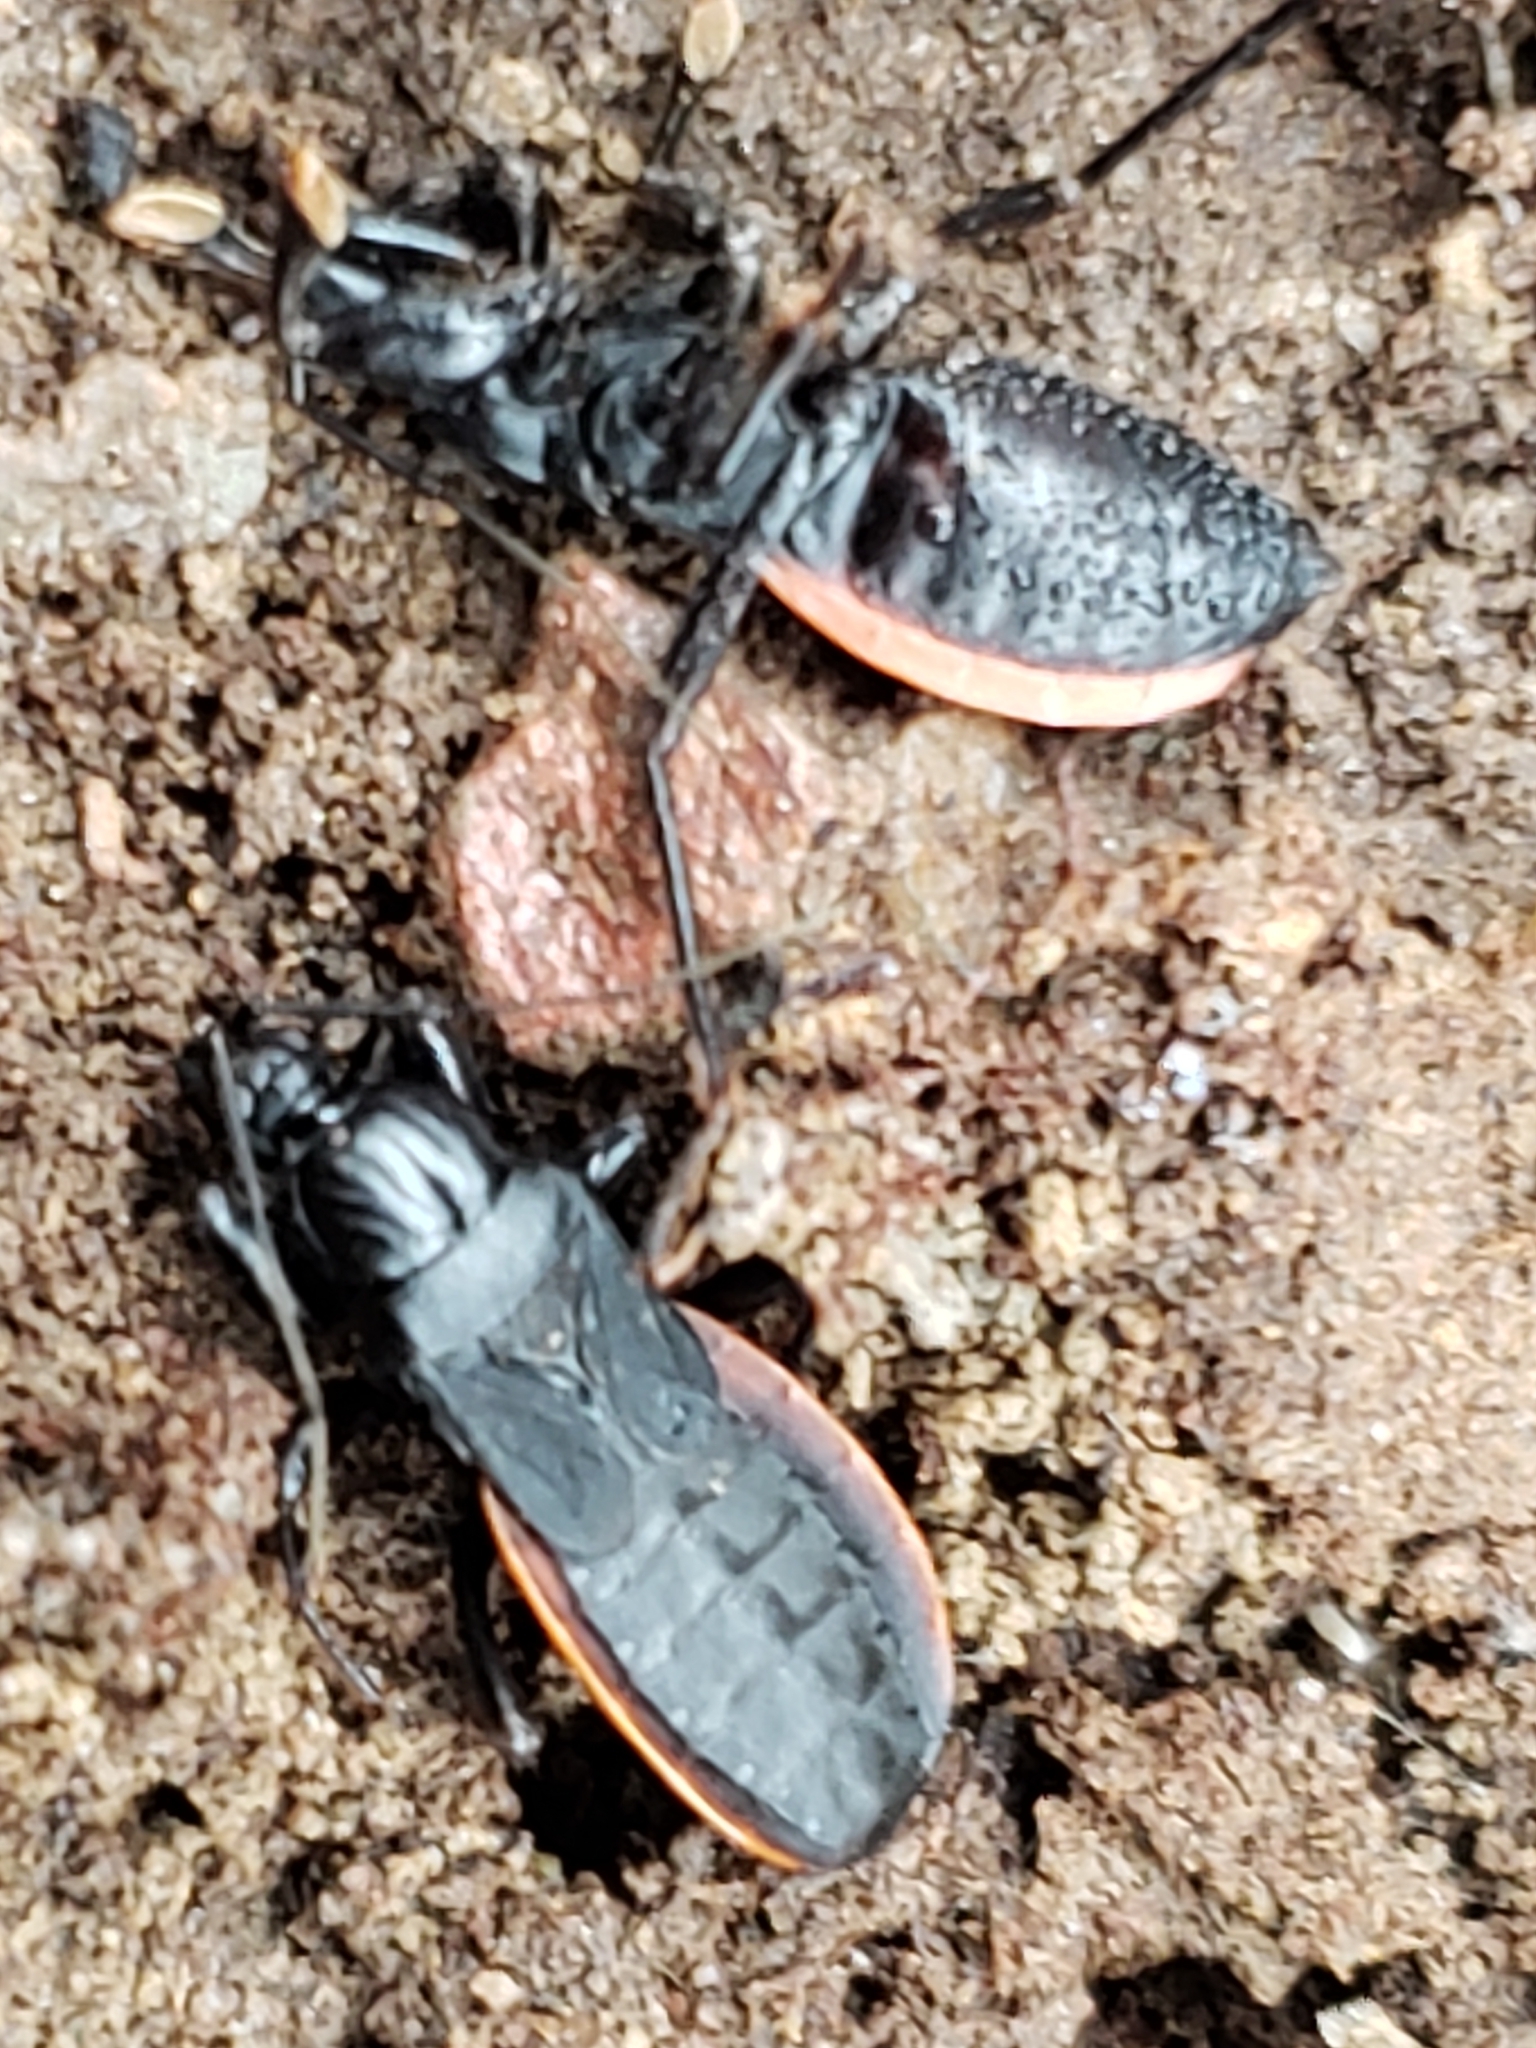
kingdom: Animalia
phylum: Arthropoda
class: Insecta
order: Hemiptera
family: Reduviidae
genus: Melanolestes
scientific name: Melanolestes picipes
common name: Assassin bug
